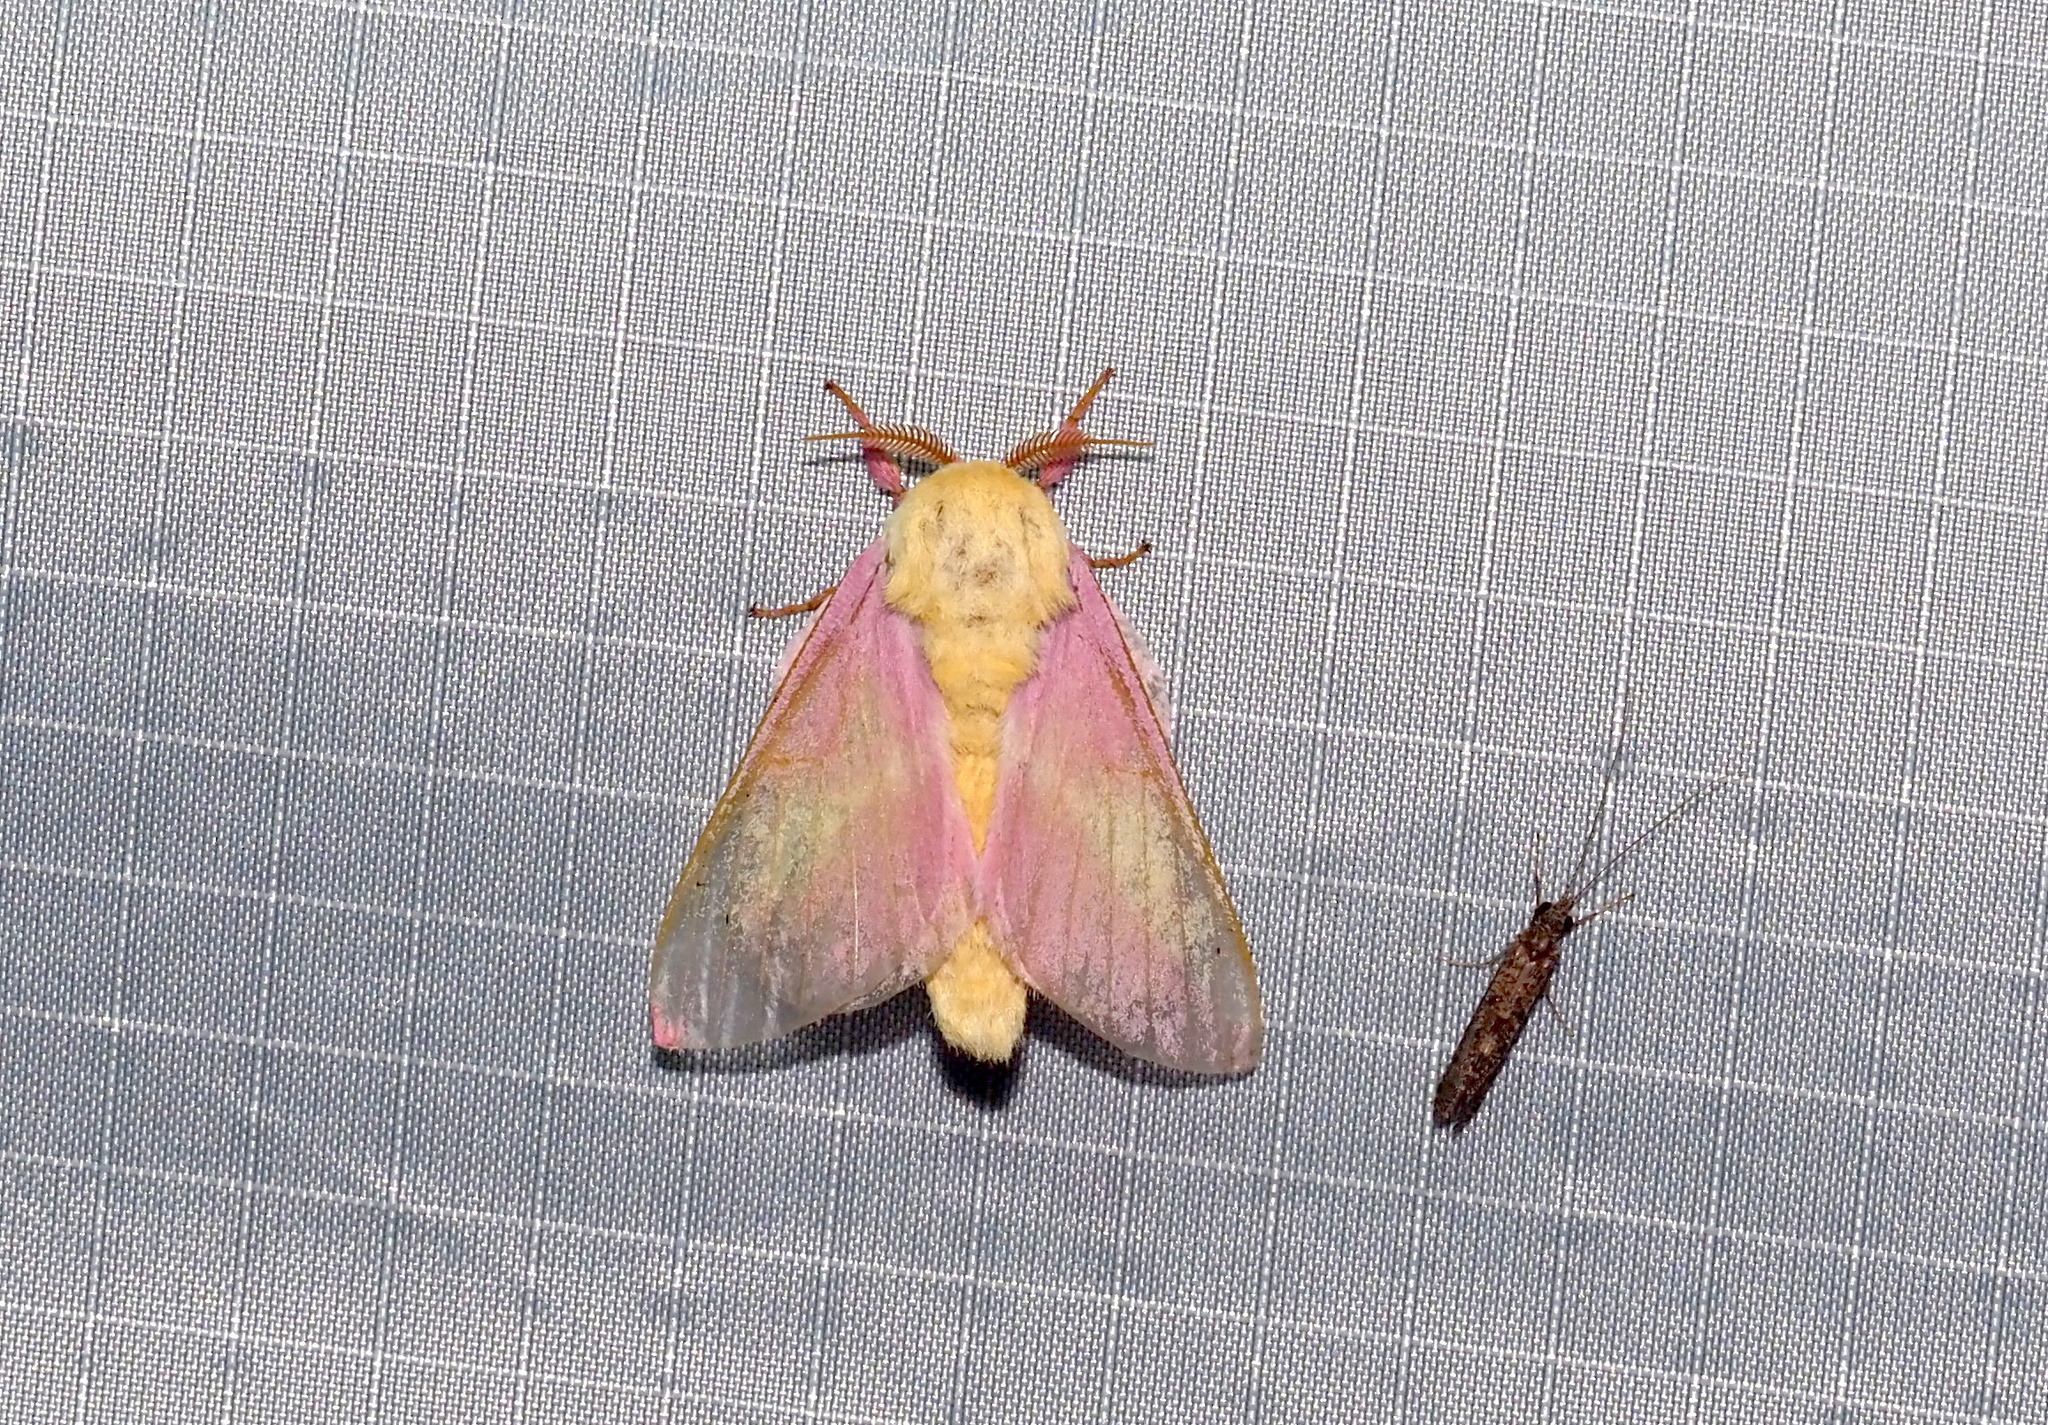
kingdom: Animalia
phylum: Arthropoda
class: Insecta
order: Lepidoptera
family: Saturniidae
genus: Dryocampa
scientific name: Dryocampa rubicunda
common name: Rosy maple moth
